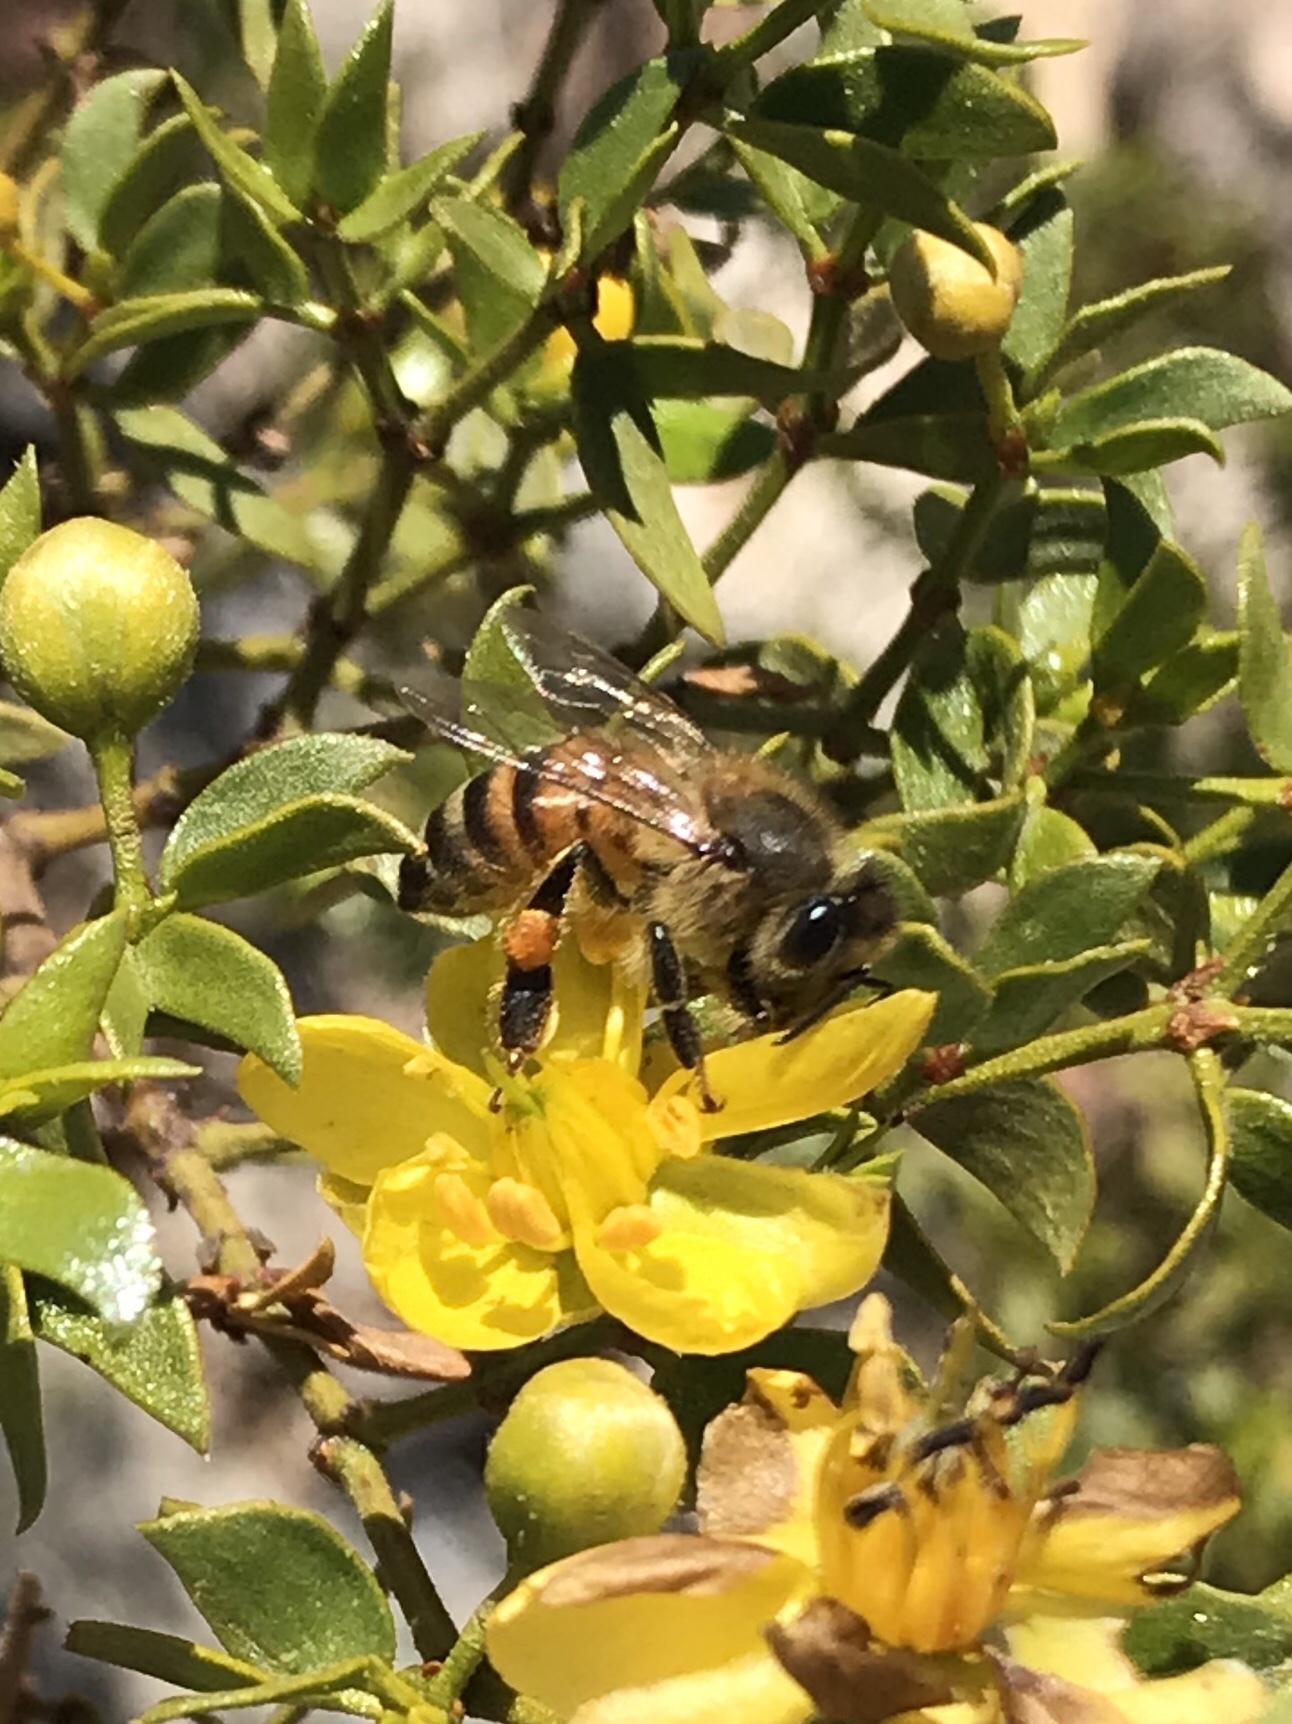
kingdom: Animalia
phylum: Arthropoda
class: Insecta
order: Hymenoptera
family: Apidae
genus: Apis
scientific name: Apis mellifera
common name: Honey bee
